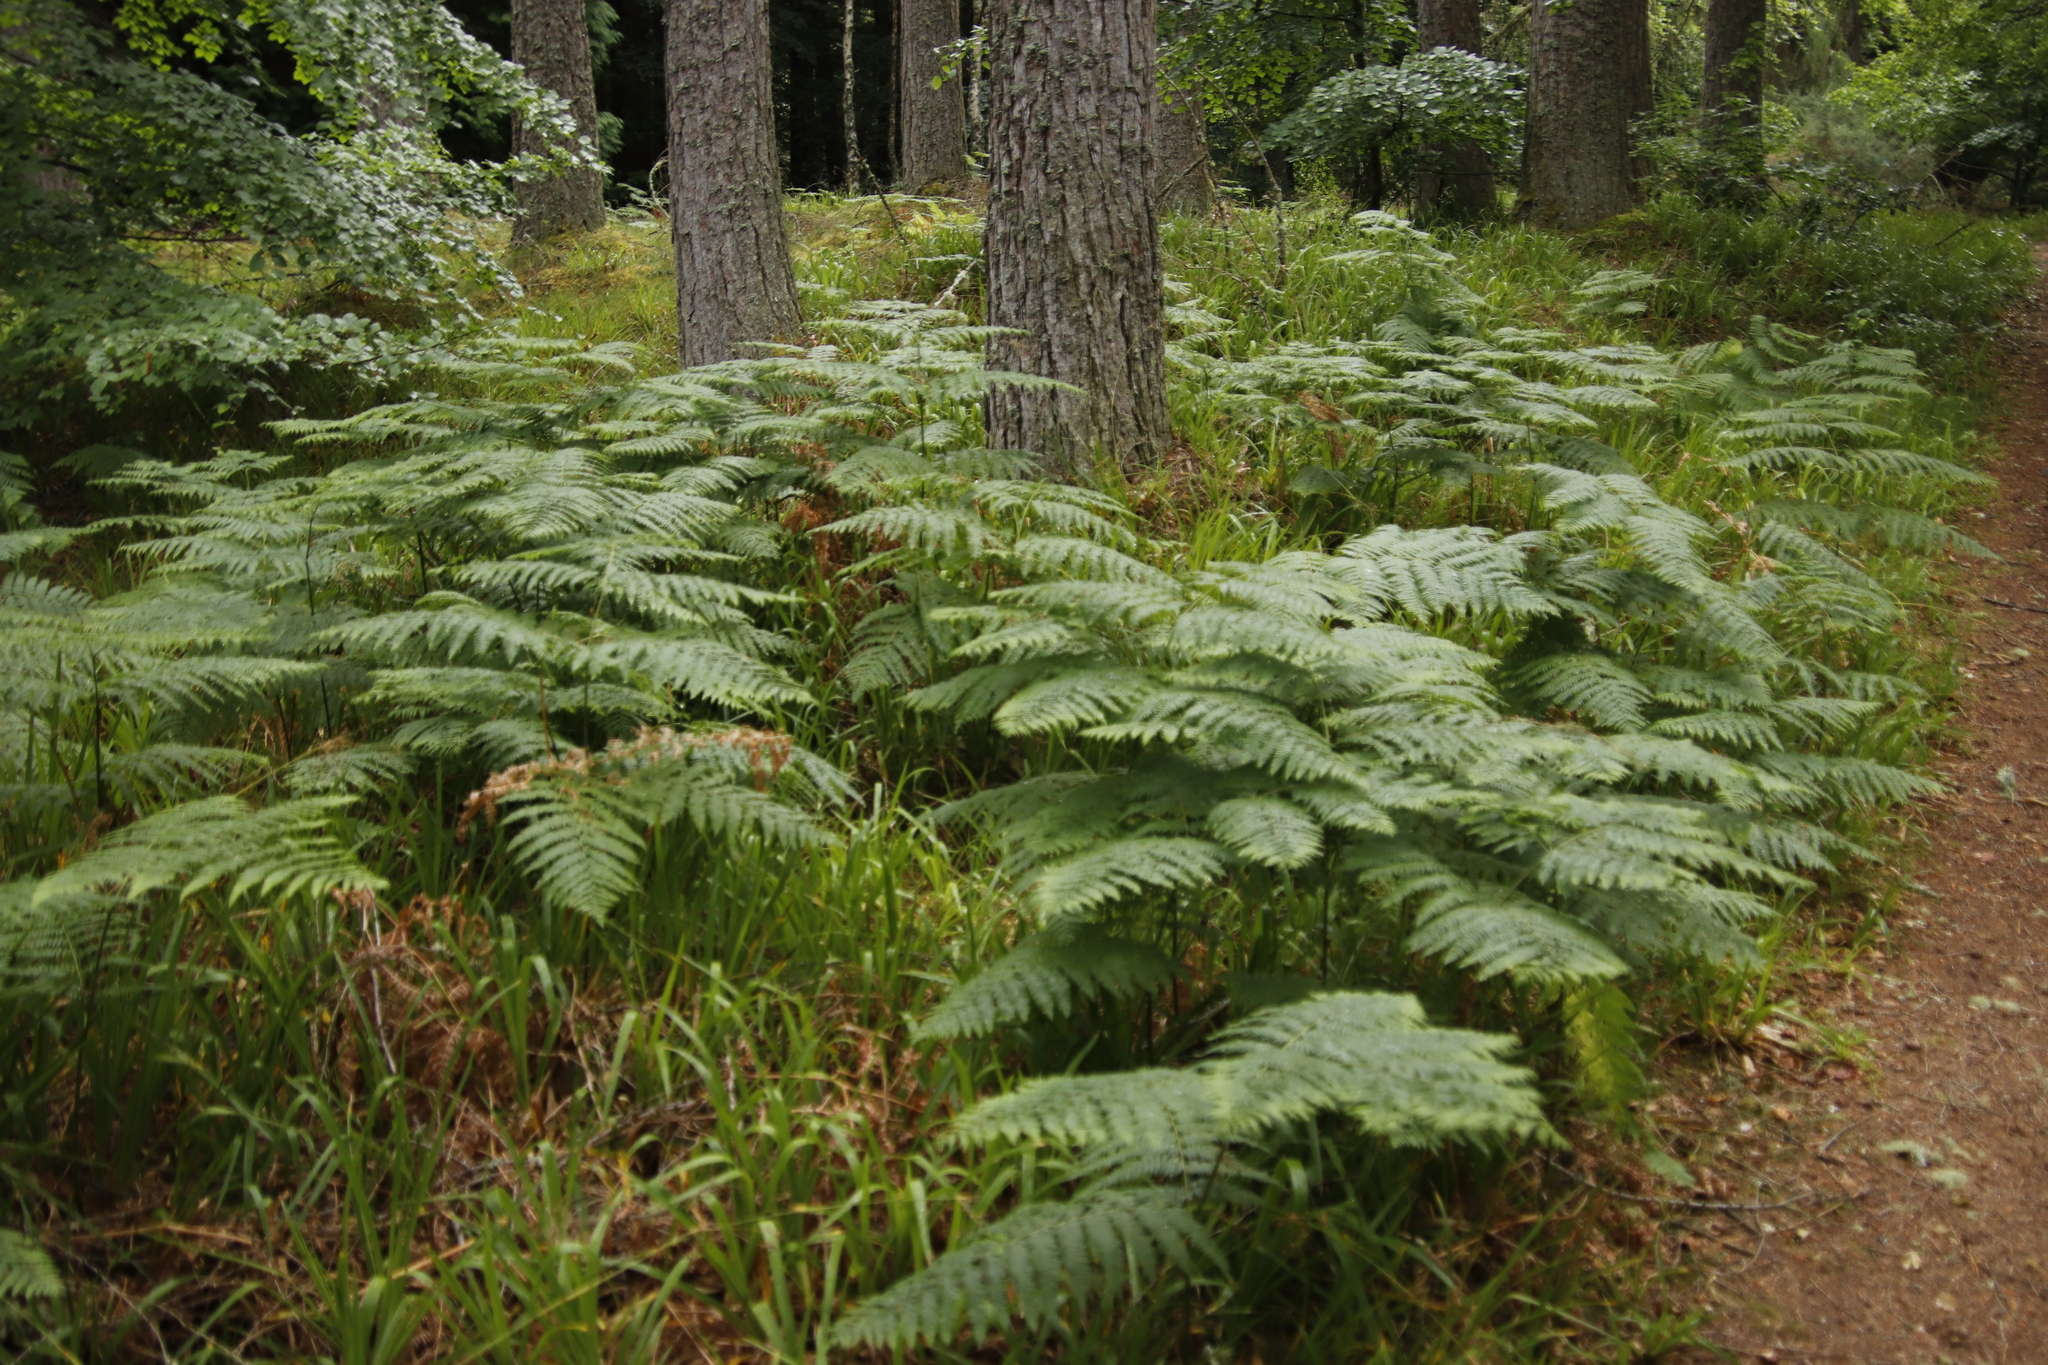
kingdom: Plantae
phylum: Tracheophyta
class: Polypodiopsida
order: Polypodiales
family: Dennstaedtiaceae
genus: Pteridium
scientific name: Pteridium aquilinum
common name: Bracken
